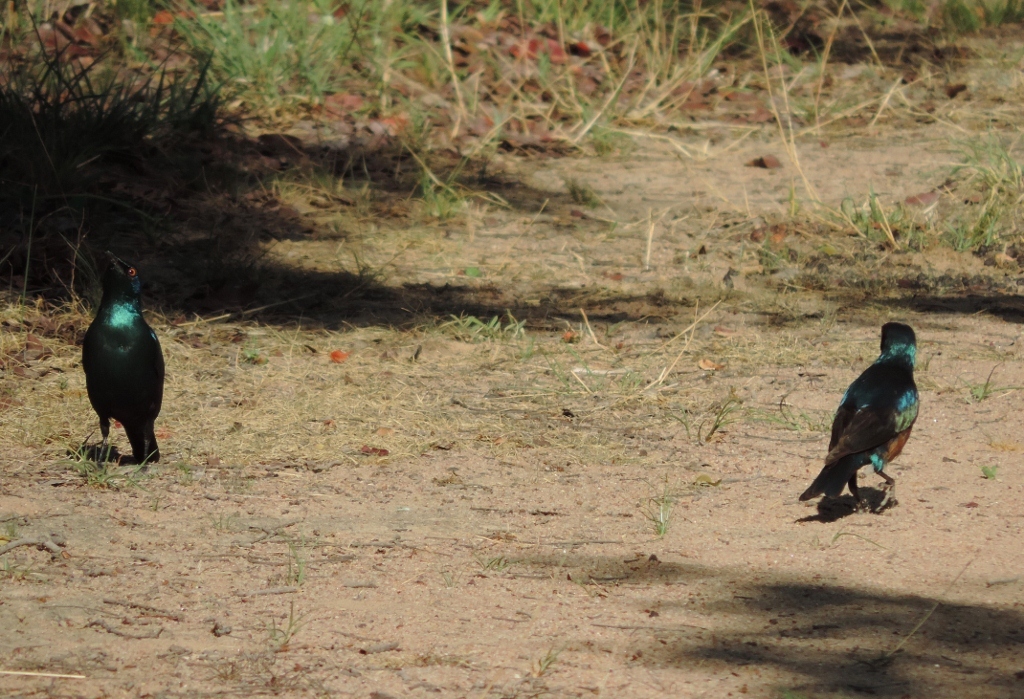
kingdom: Animalia
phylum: Chordata
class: Aves
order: Passeriformes
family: Sturnidae
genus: Lamprotornis
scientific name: Lamprotornis chloropterus
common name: Lesser blue-eared starling
